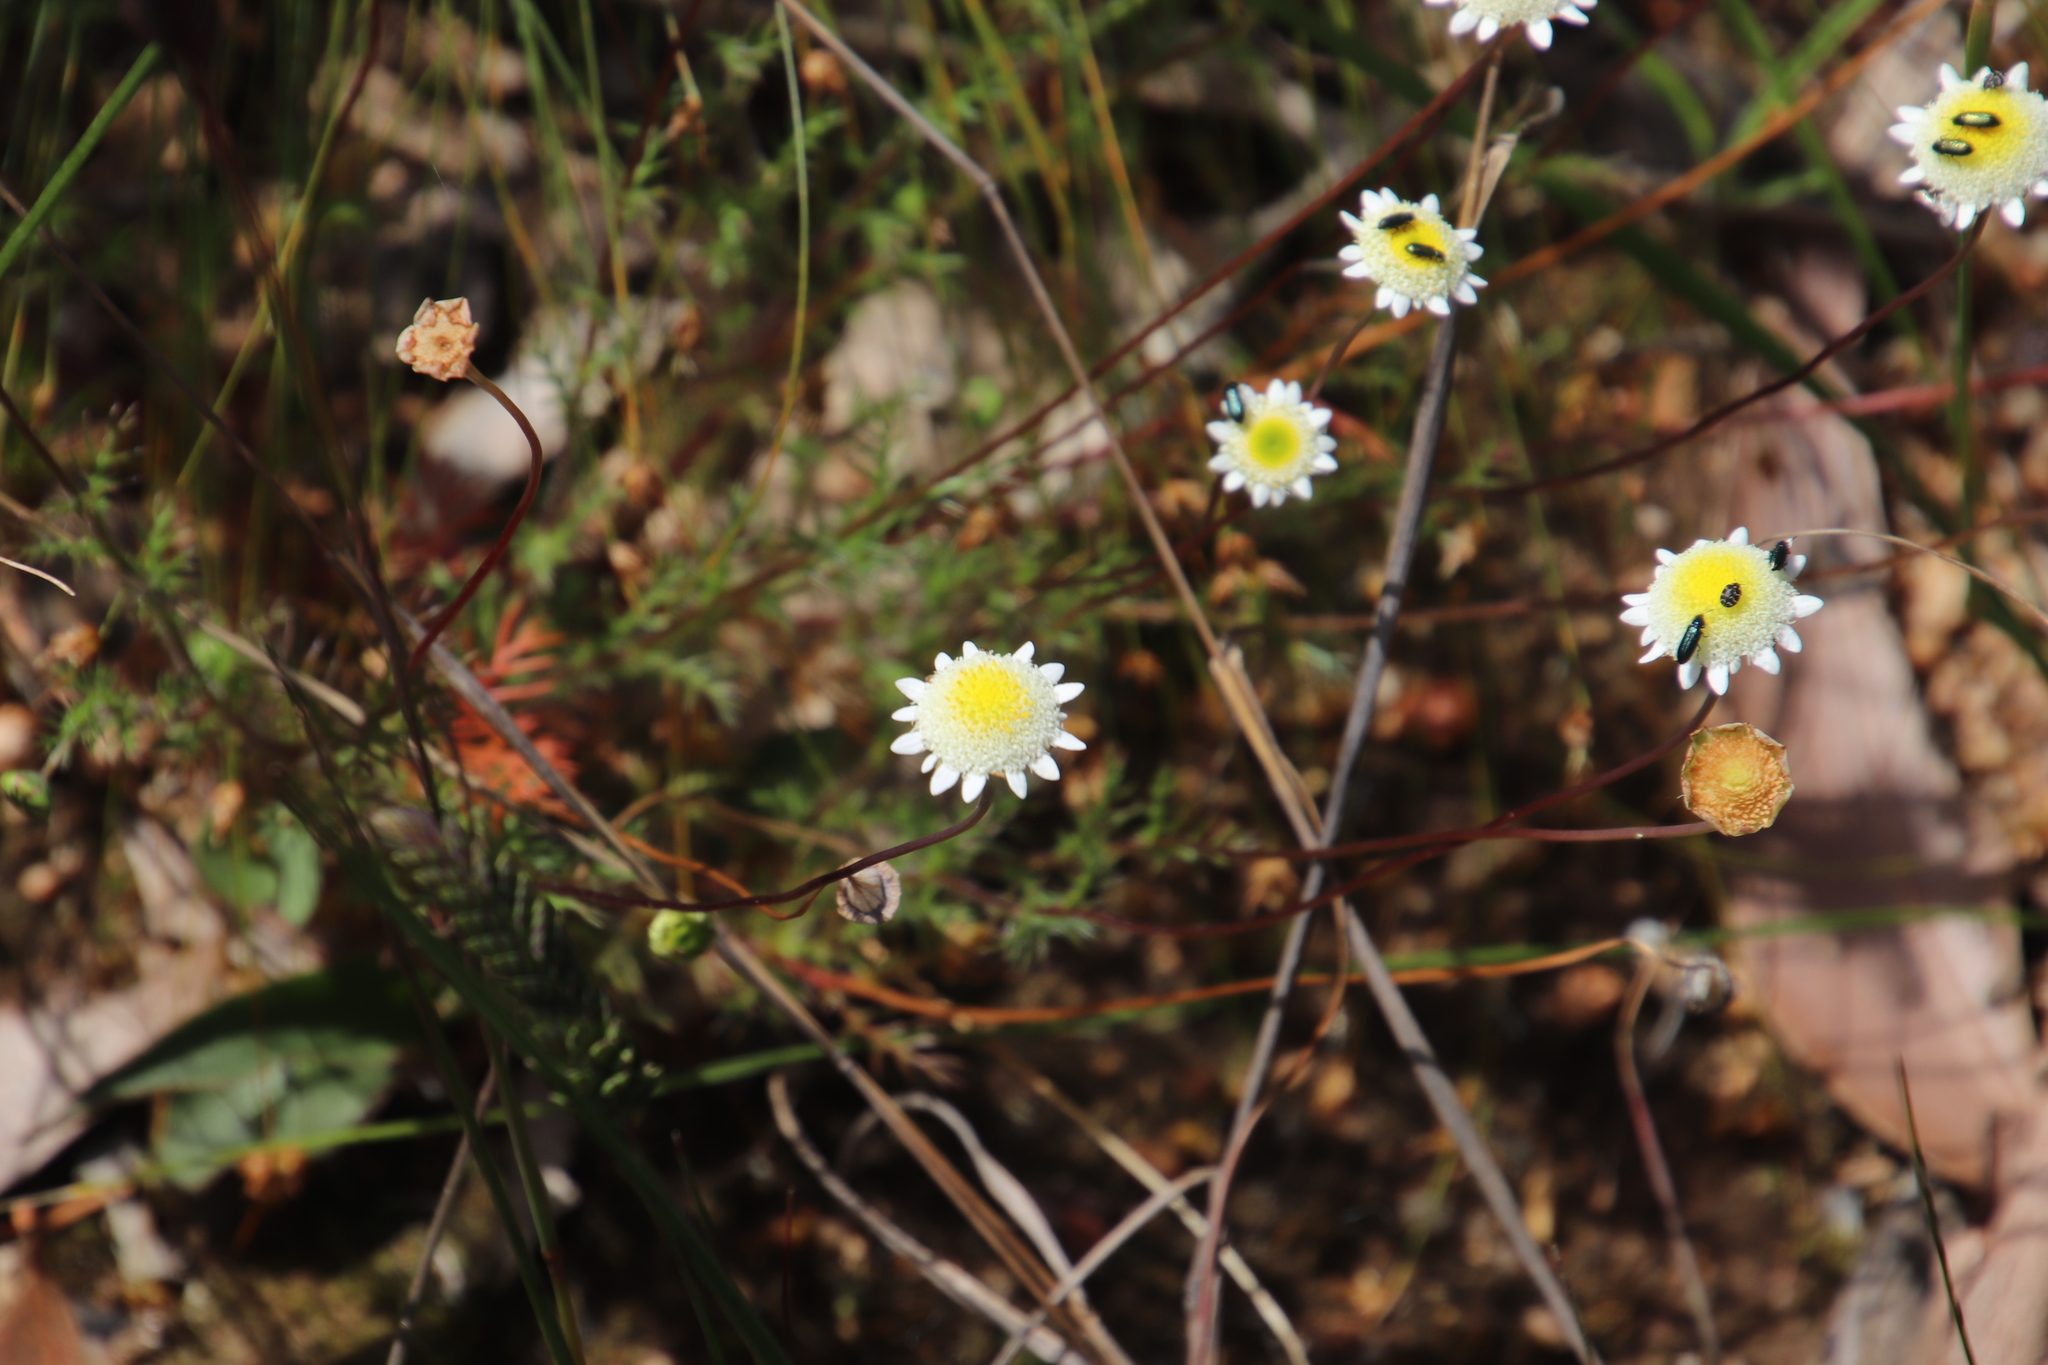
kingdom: Plantae
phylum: Tracheophyta
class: Magnoliopsida
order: Asterales
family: Asteraceae
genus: Cotula
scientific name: Cotula turbinata
